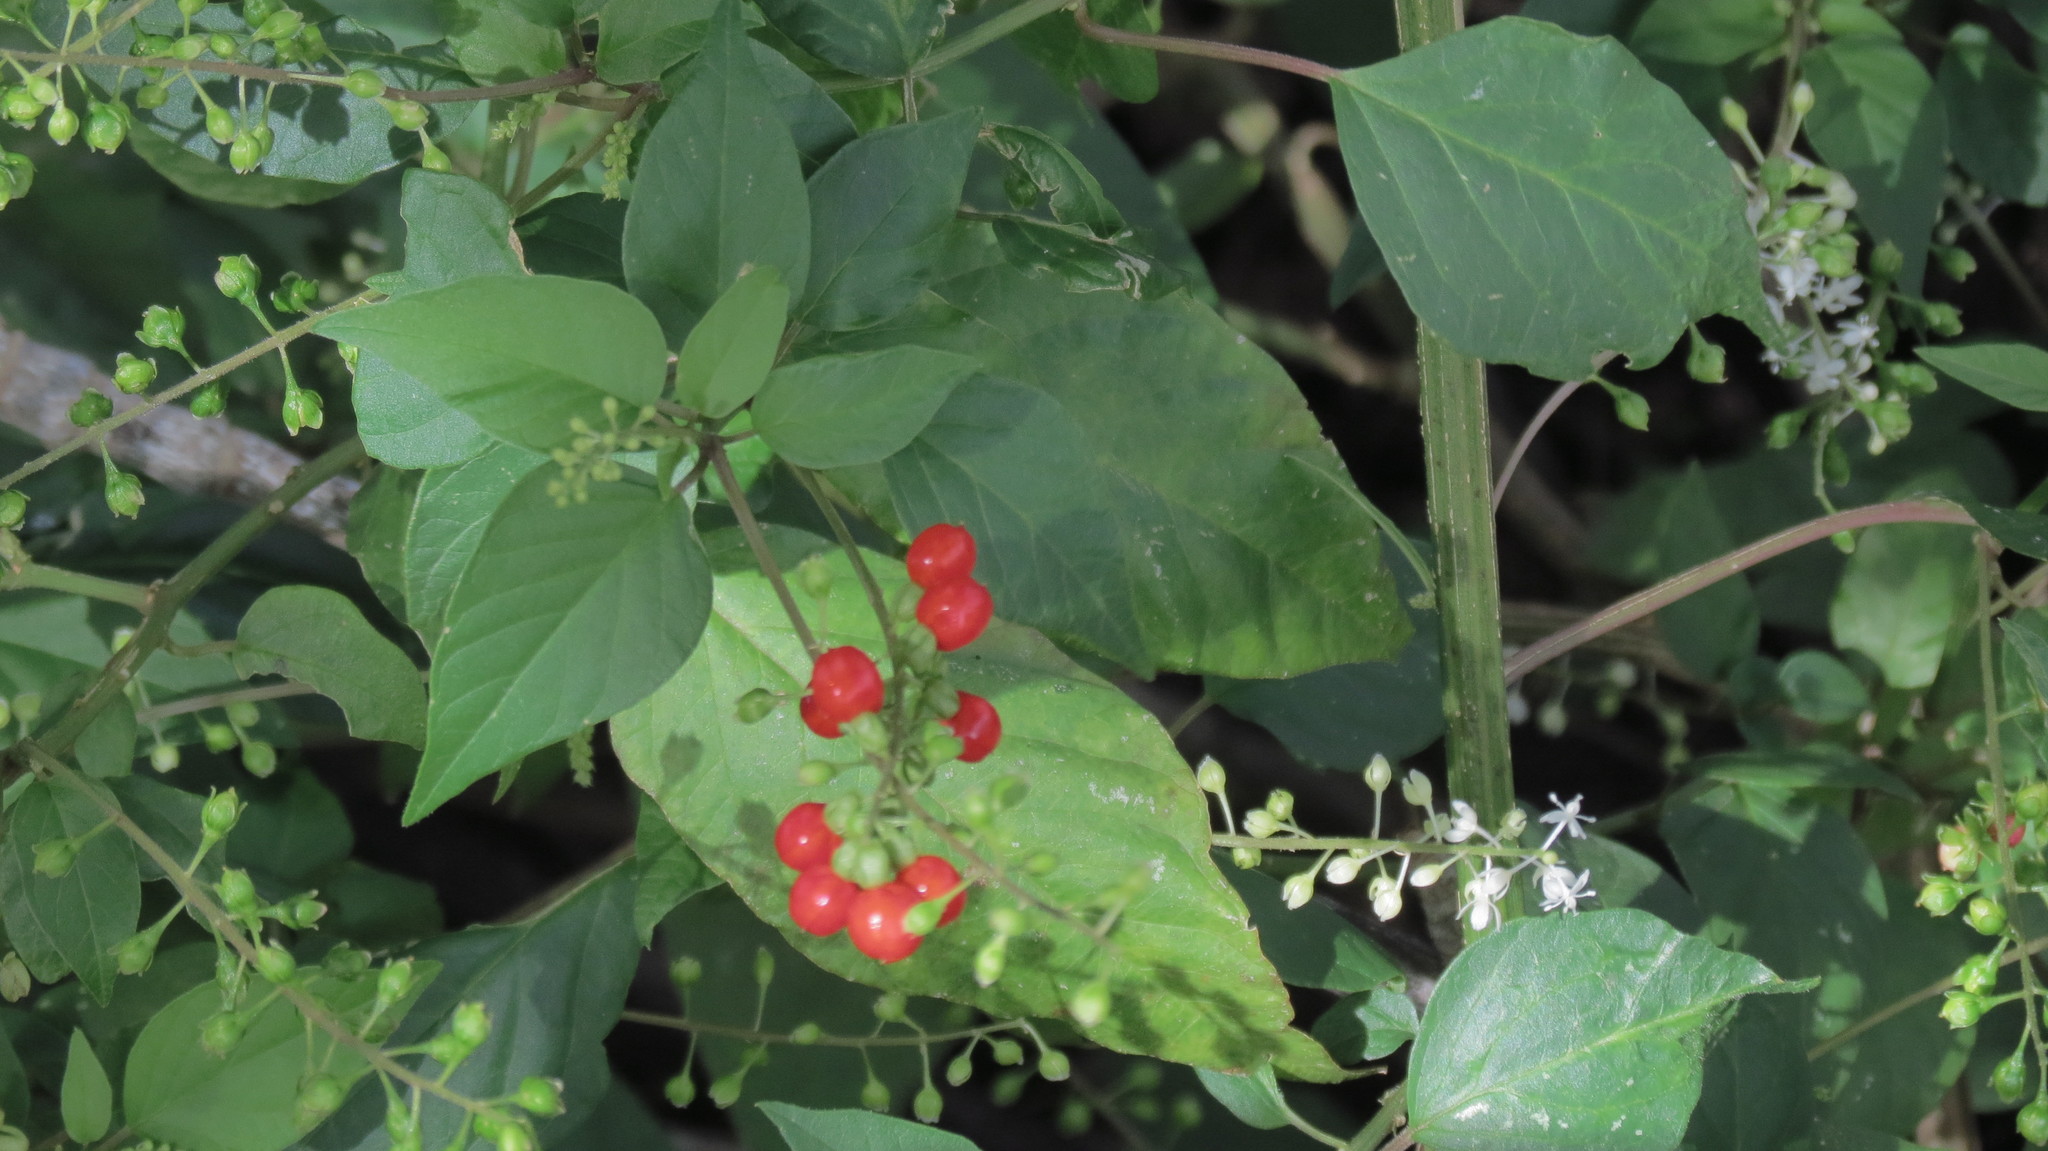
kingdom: Plantae
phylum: Tracheophyta
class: Magnoliopsida
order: Caryophyllales
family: Phytolaccaceae
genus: Rivina
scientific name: Rivina humilis
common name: Rougeplant
